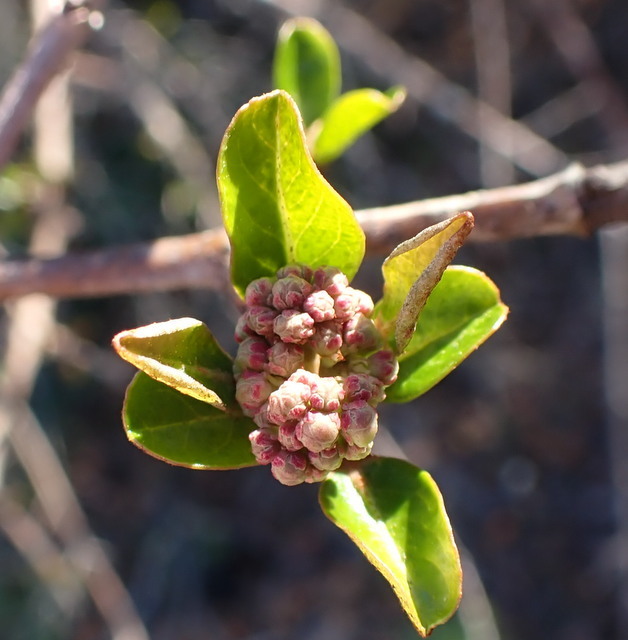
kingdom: Plantae
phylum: Tracheophyta
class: Magnoliopsida
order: Dipsacales
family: Viburnaceae
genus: Viburnum
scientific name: Viburnum obovatum
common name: Walter's viburnum
